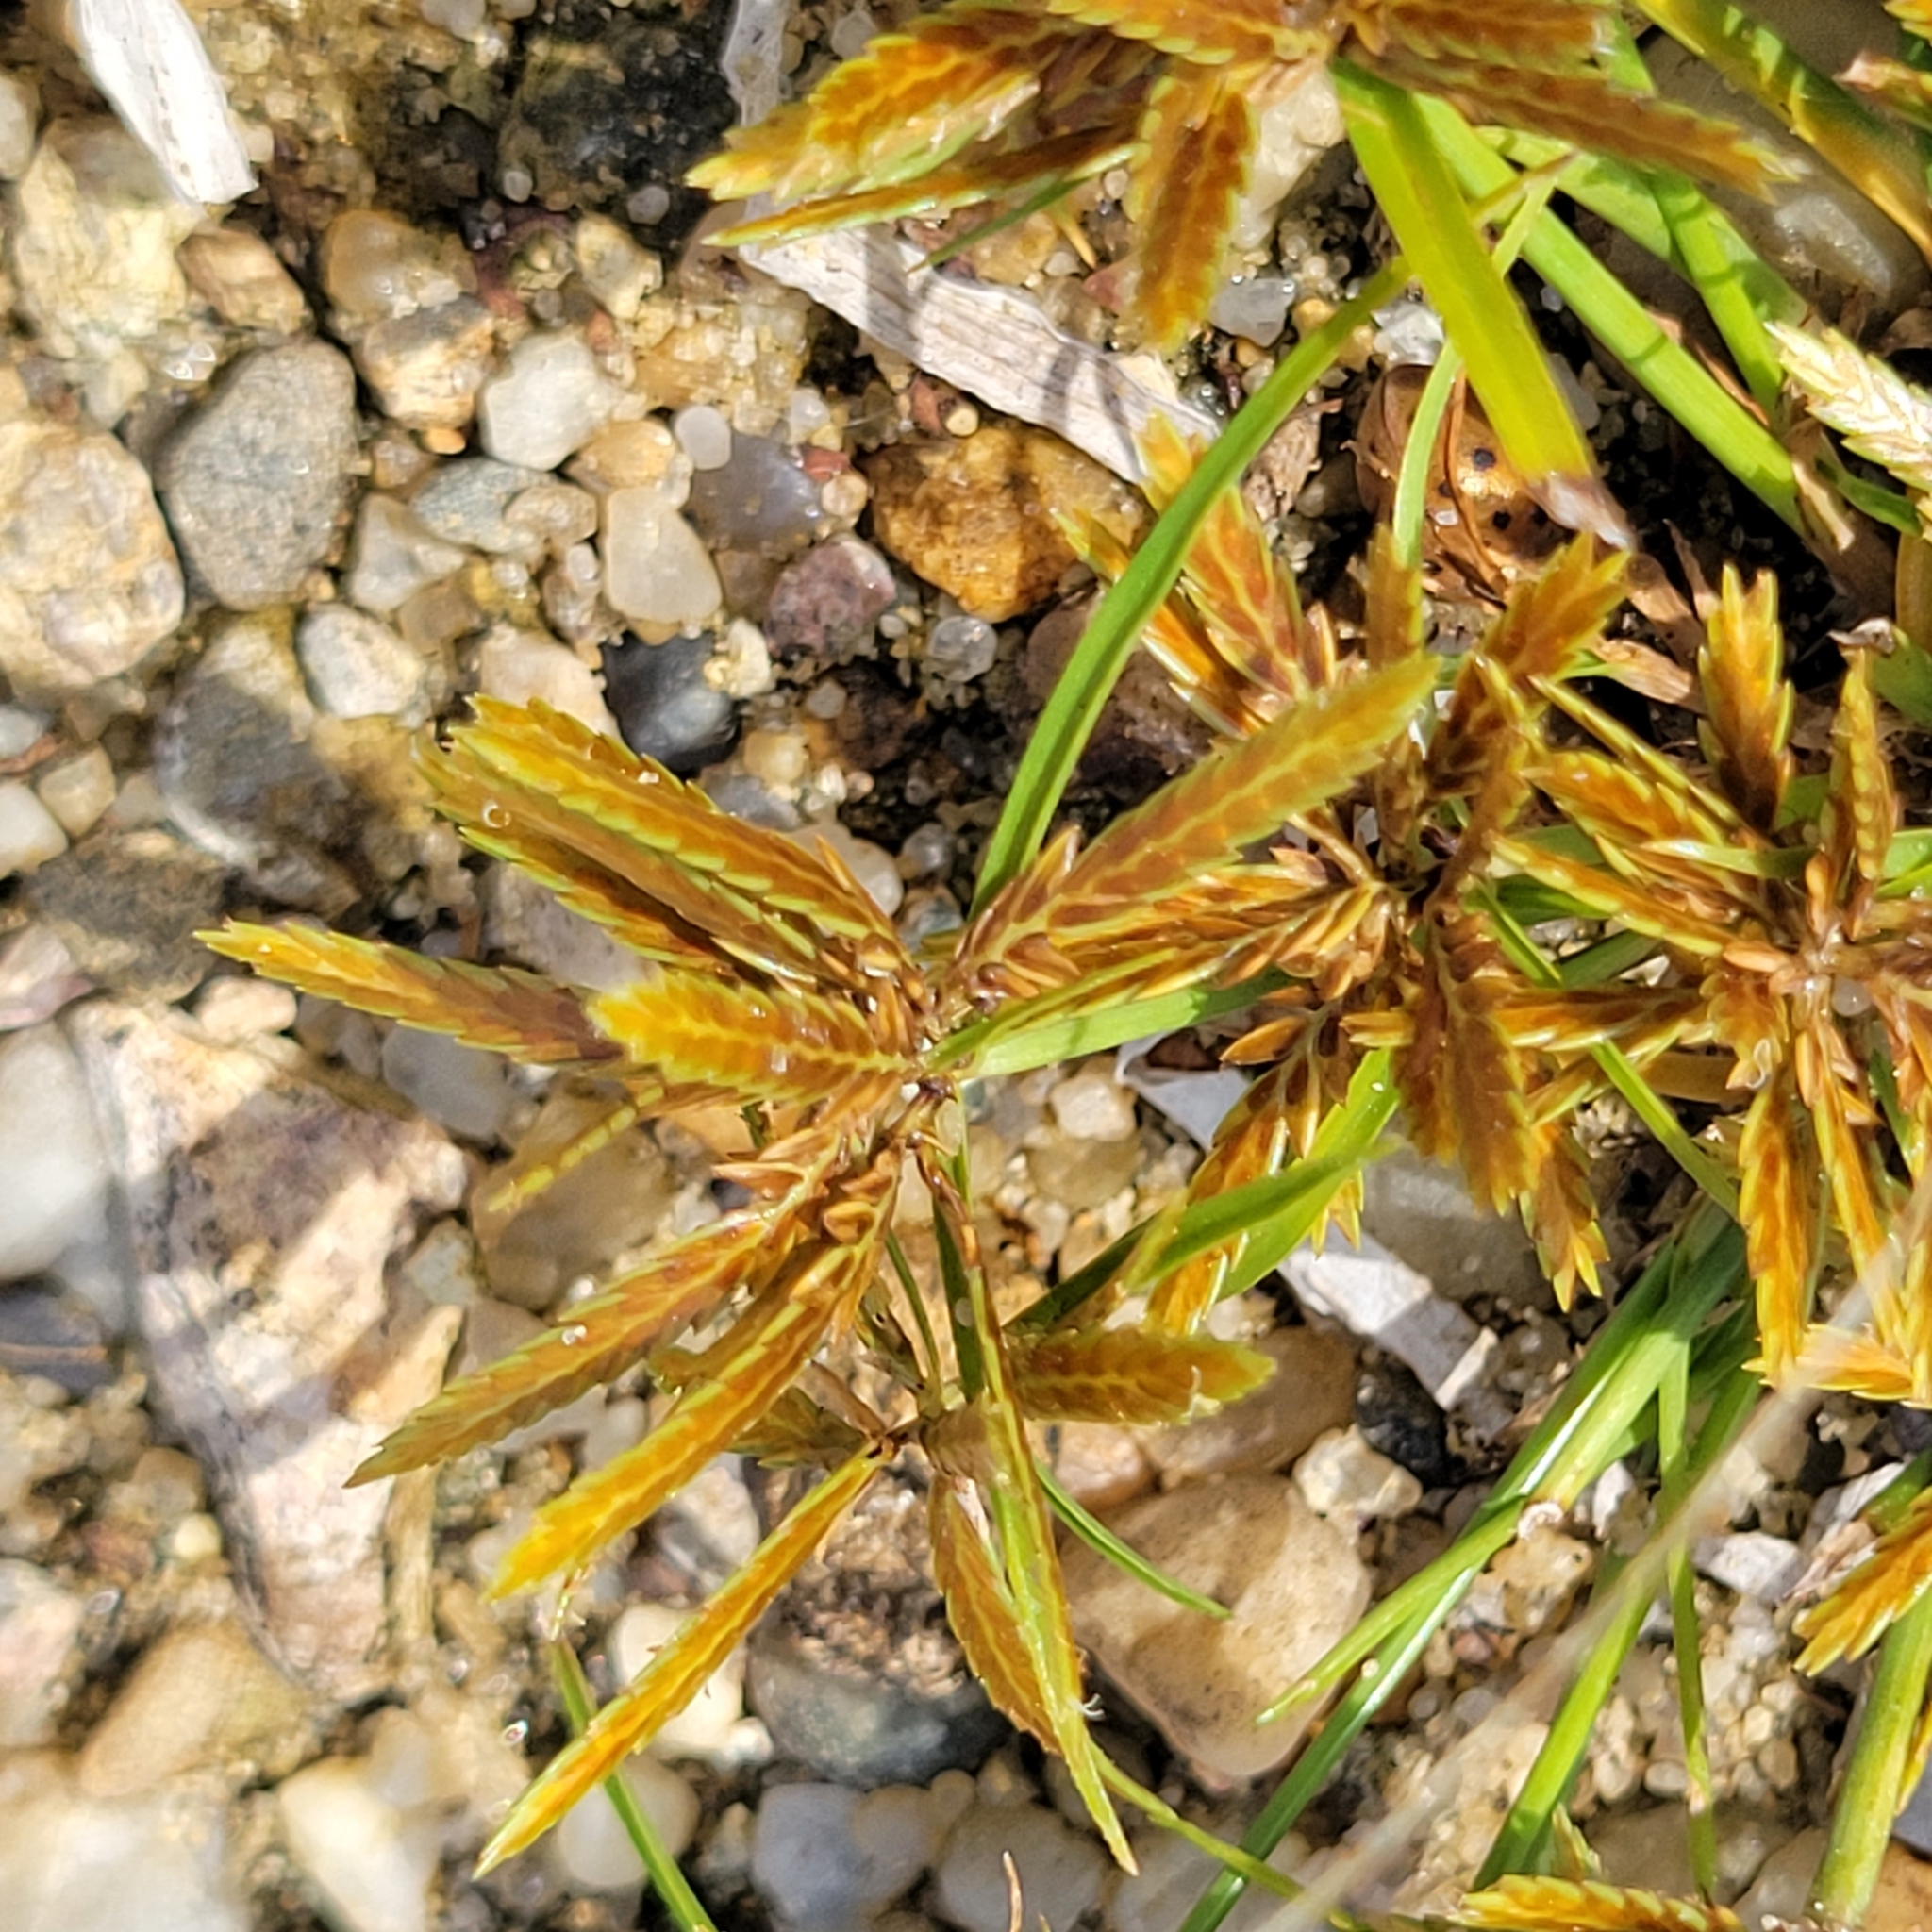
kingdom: Plantae
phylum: Tracheophyta
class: Liliopsida
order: Poales
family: Cyperaceae
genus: Cyperus
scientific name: Cyperus filicinus
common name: Fern flatsedge
